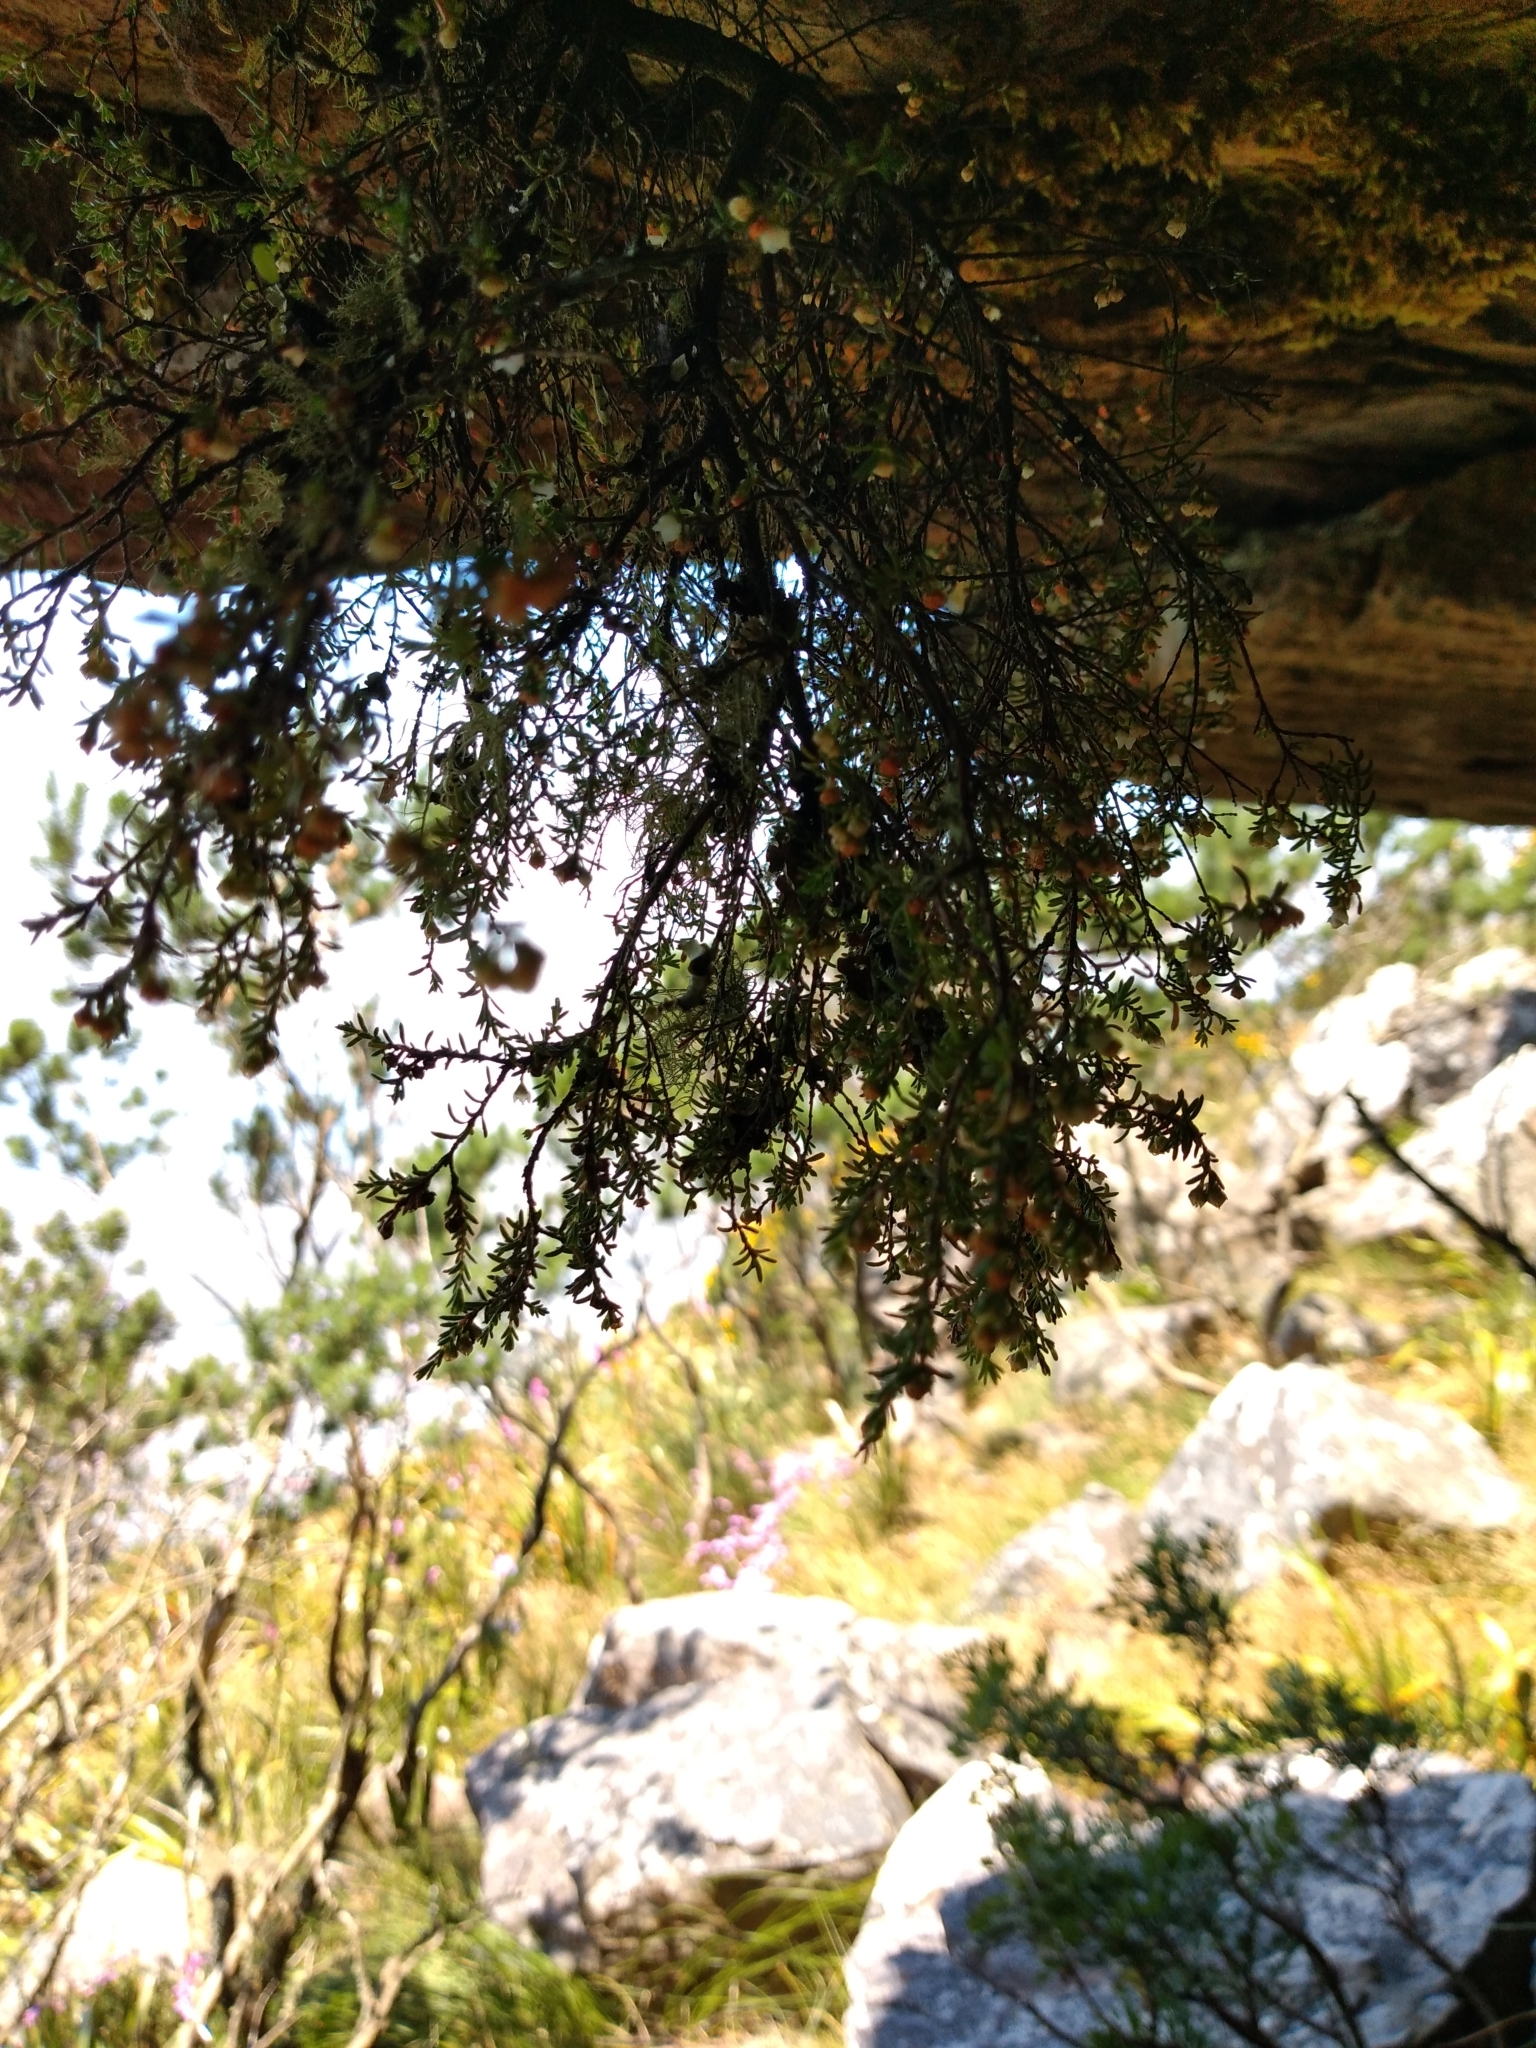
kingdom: Plantae
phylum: Tracheophyta
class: Magnoliopsida
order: Ericales
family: Ericaceae
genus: Erica
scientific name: Erica tenuis
